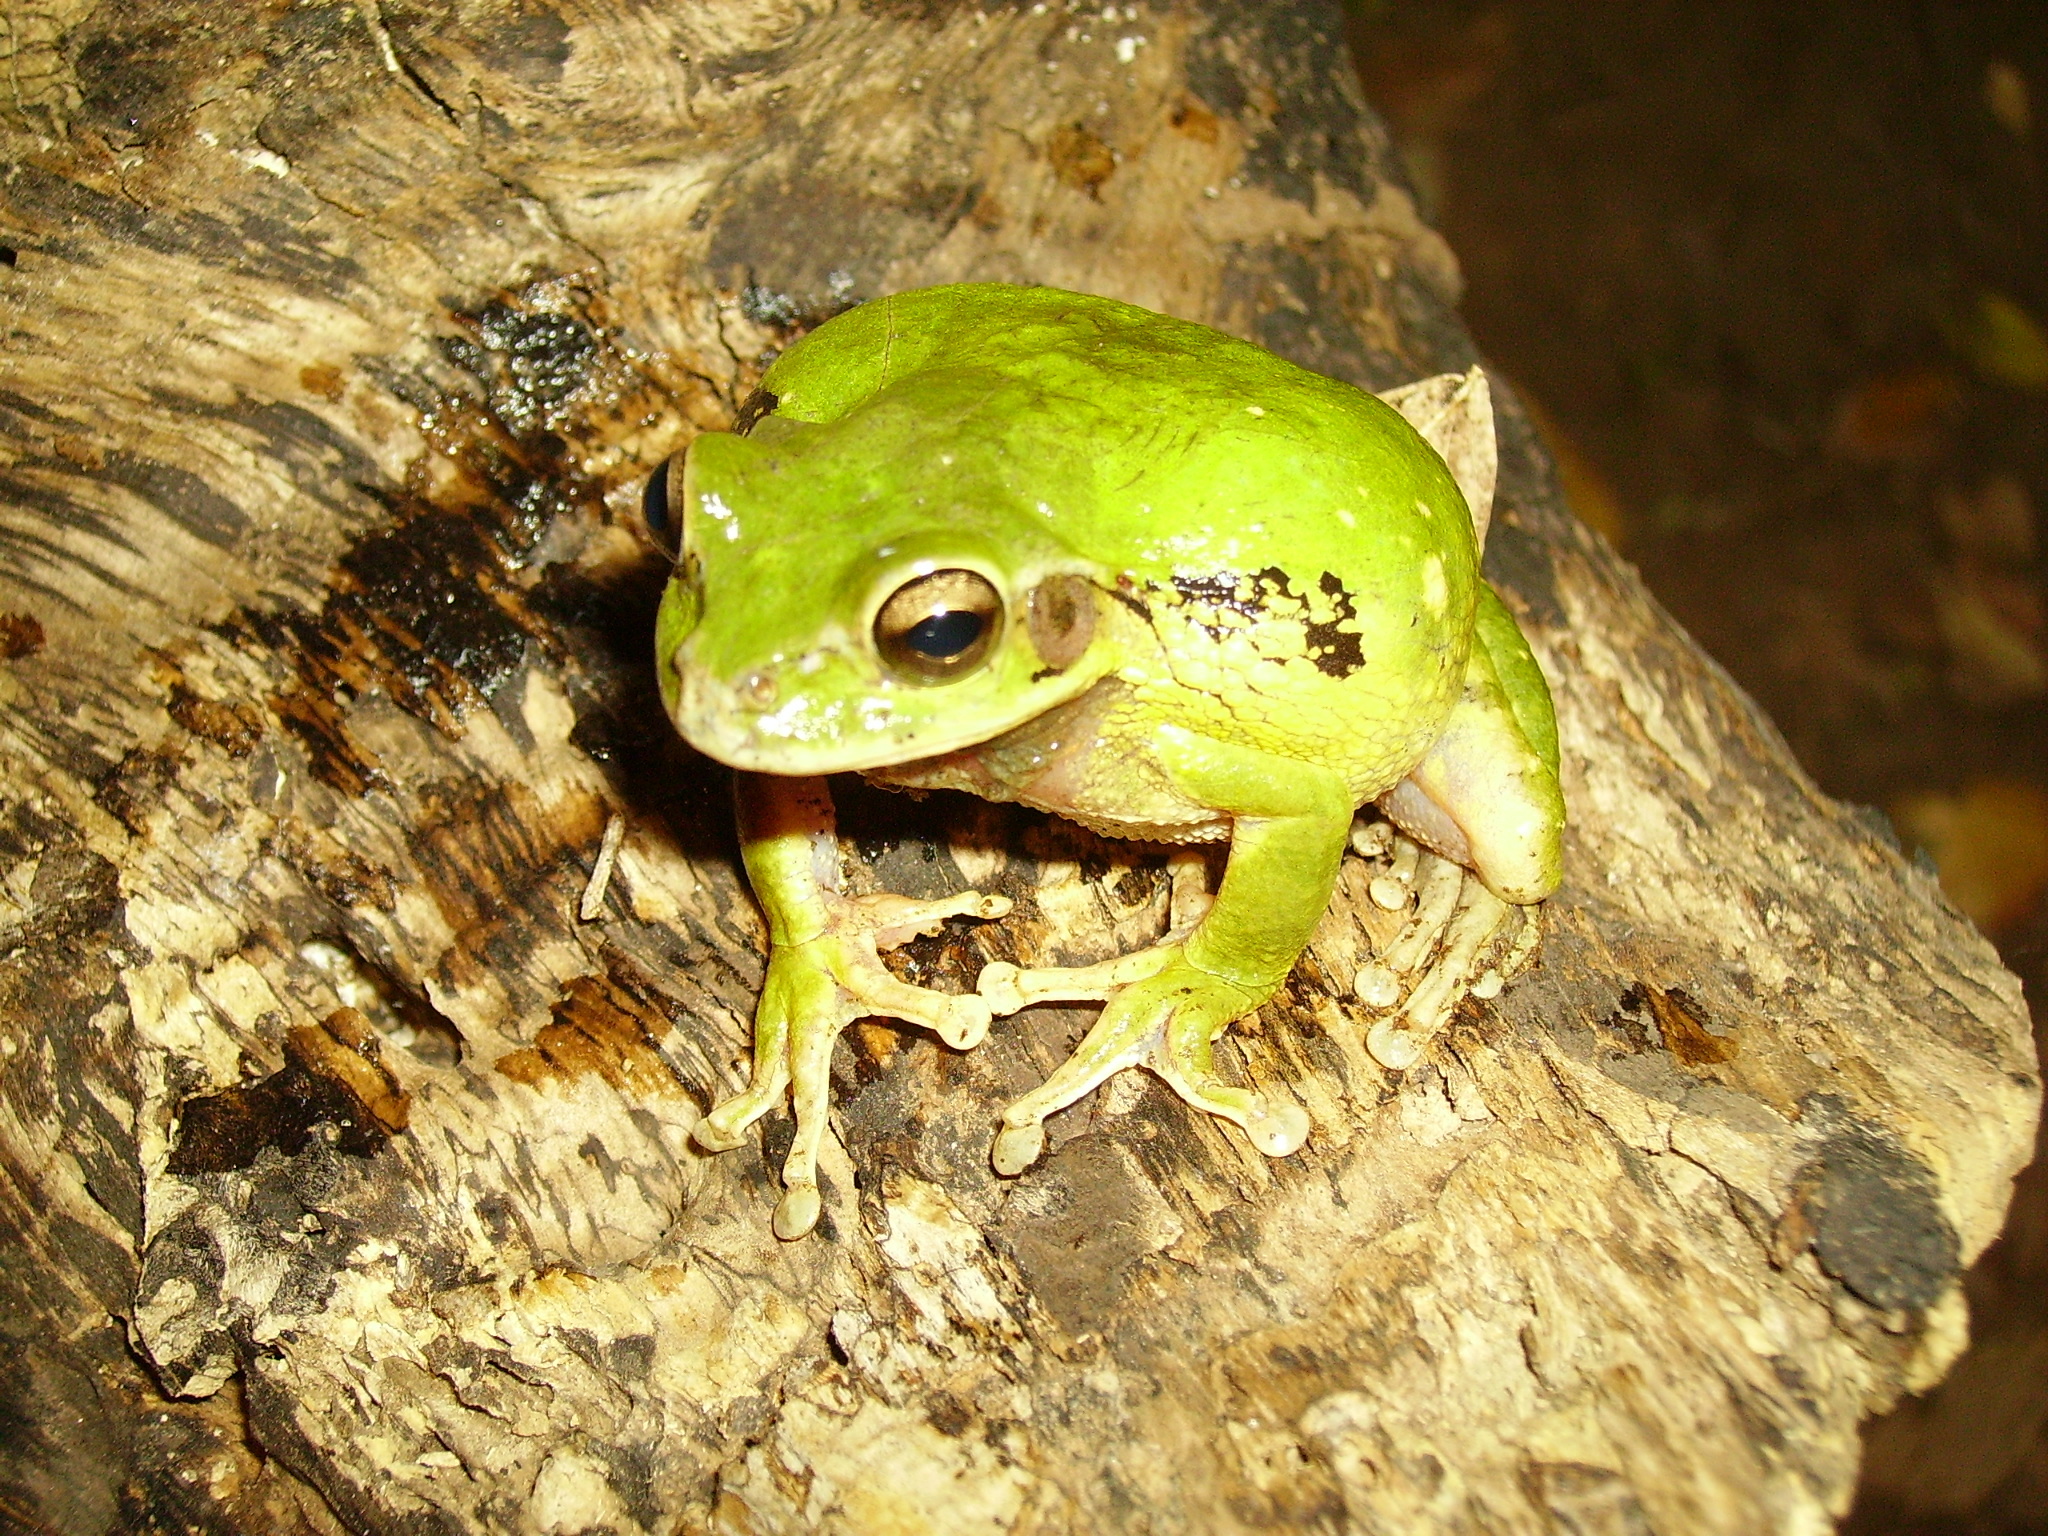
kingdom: Animalia
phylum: Chordata
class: Amphibia
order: Anura
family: Hylidae
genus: Smilisca
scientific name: Smilisca baudinii
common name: Mexican smilisca
